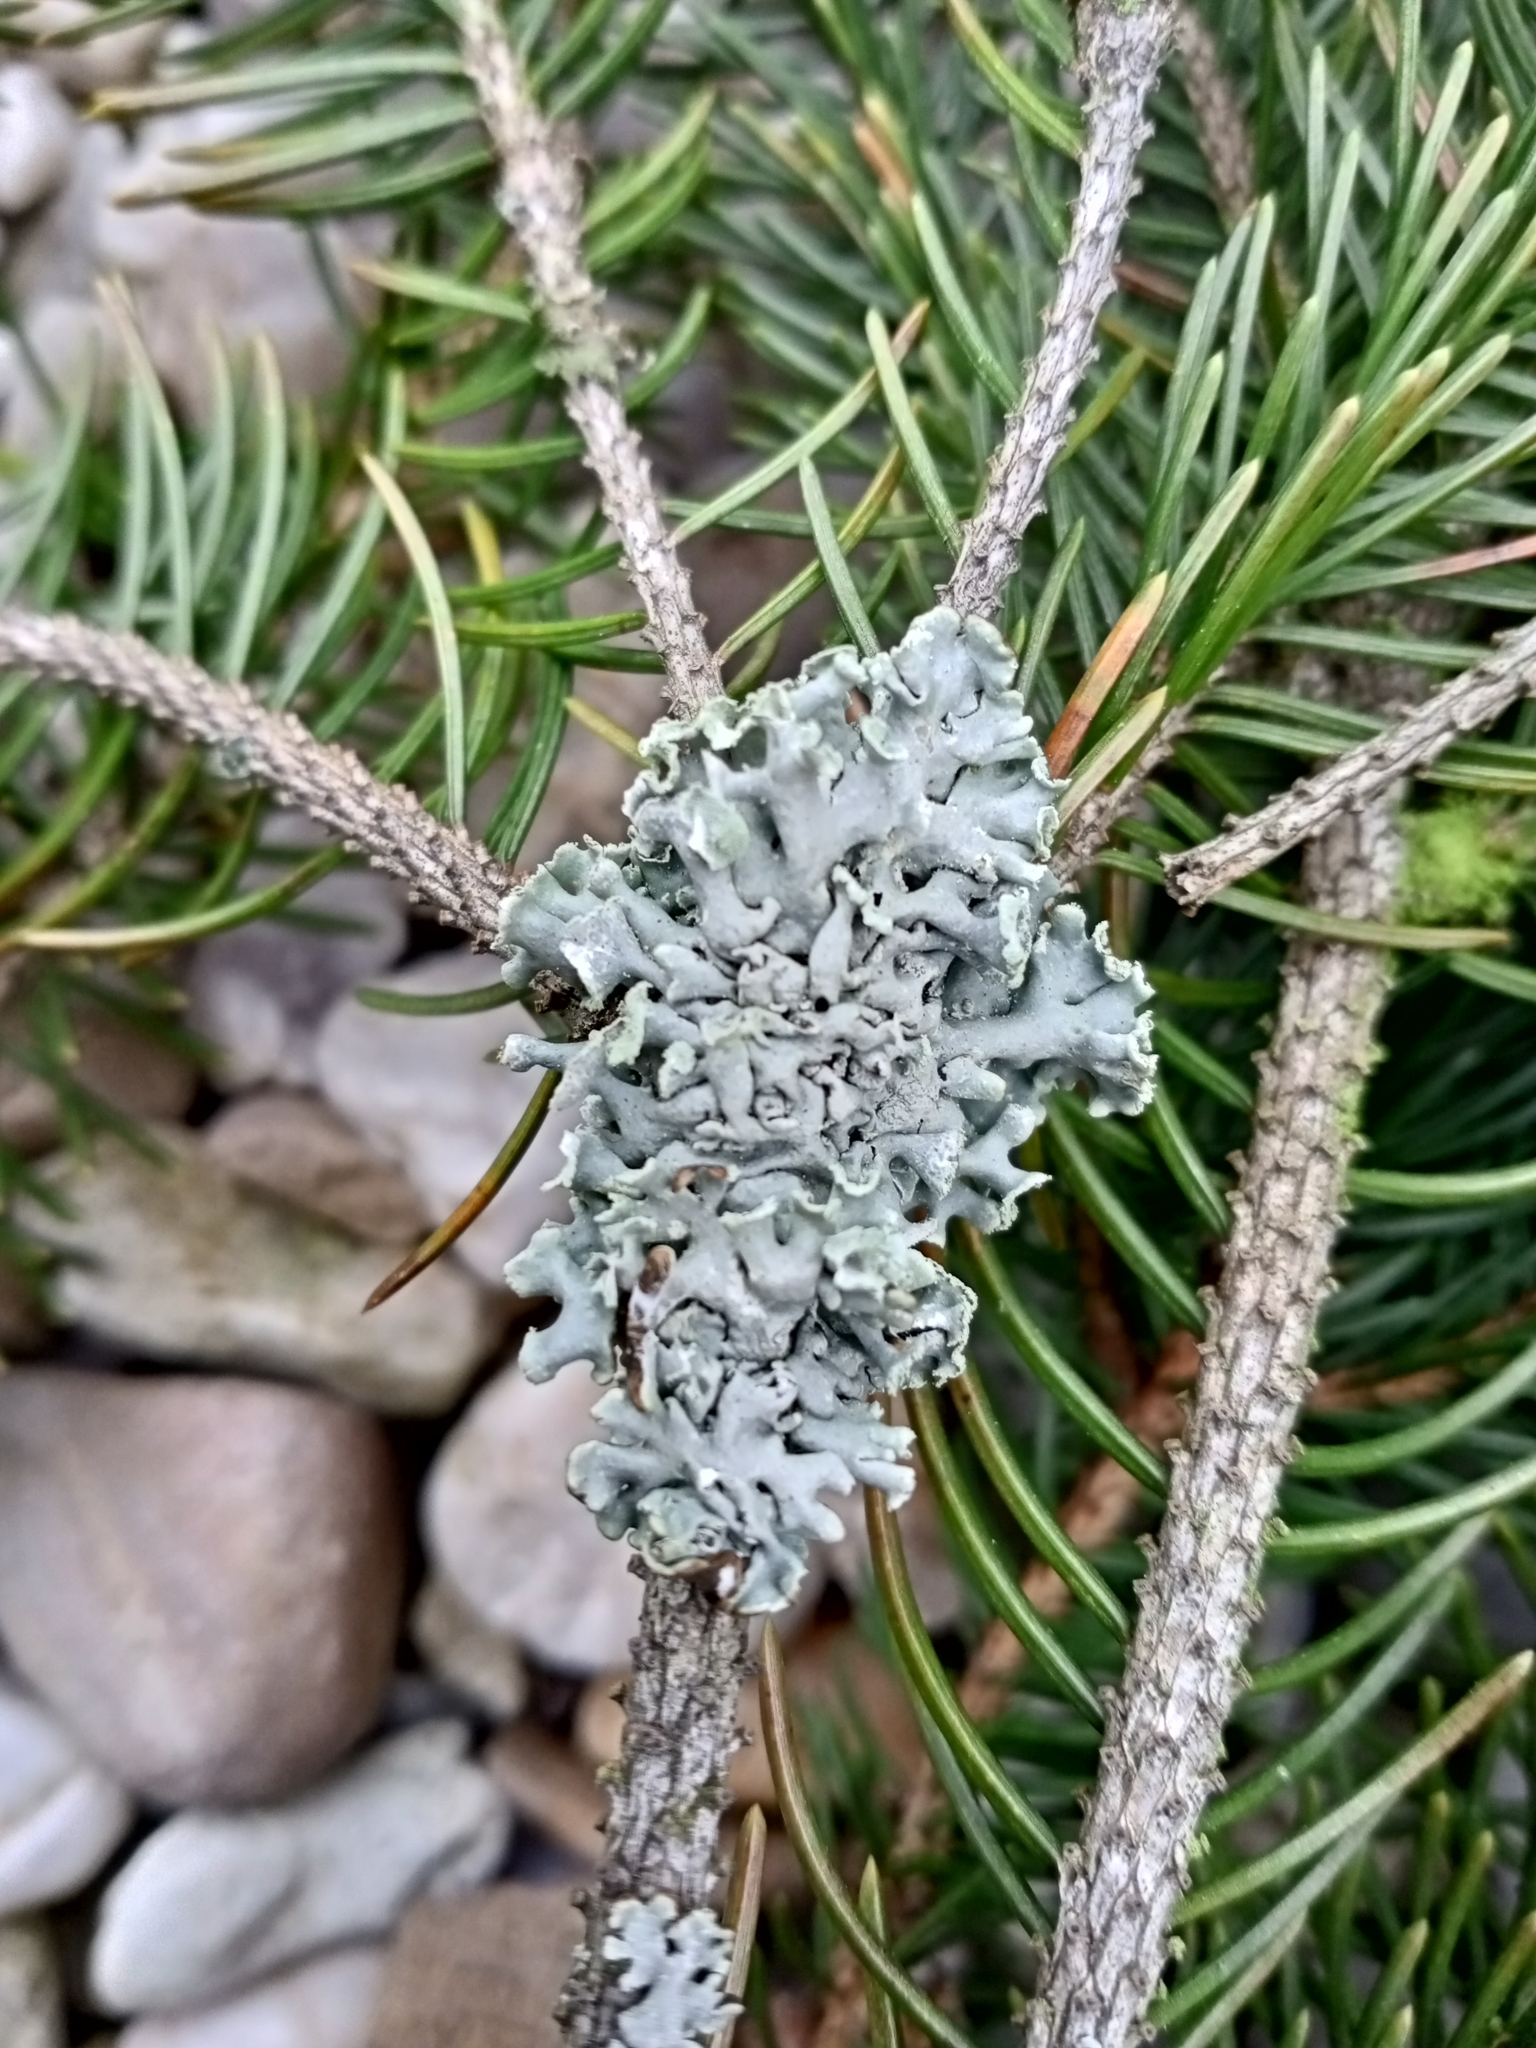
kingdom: Fungi
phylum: Ascomycota
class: Lecanoromycetes
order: Lecanorales
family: Parmeliaceae
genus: Hypogymnia
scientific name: Hypogymnia physodes
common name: Dark crottle
